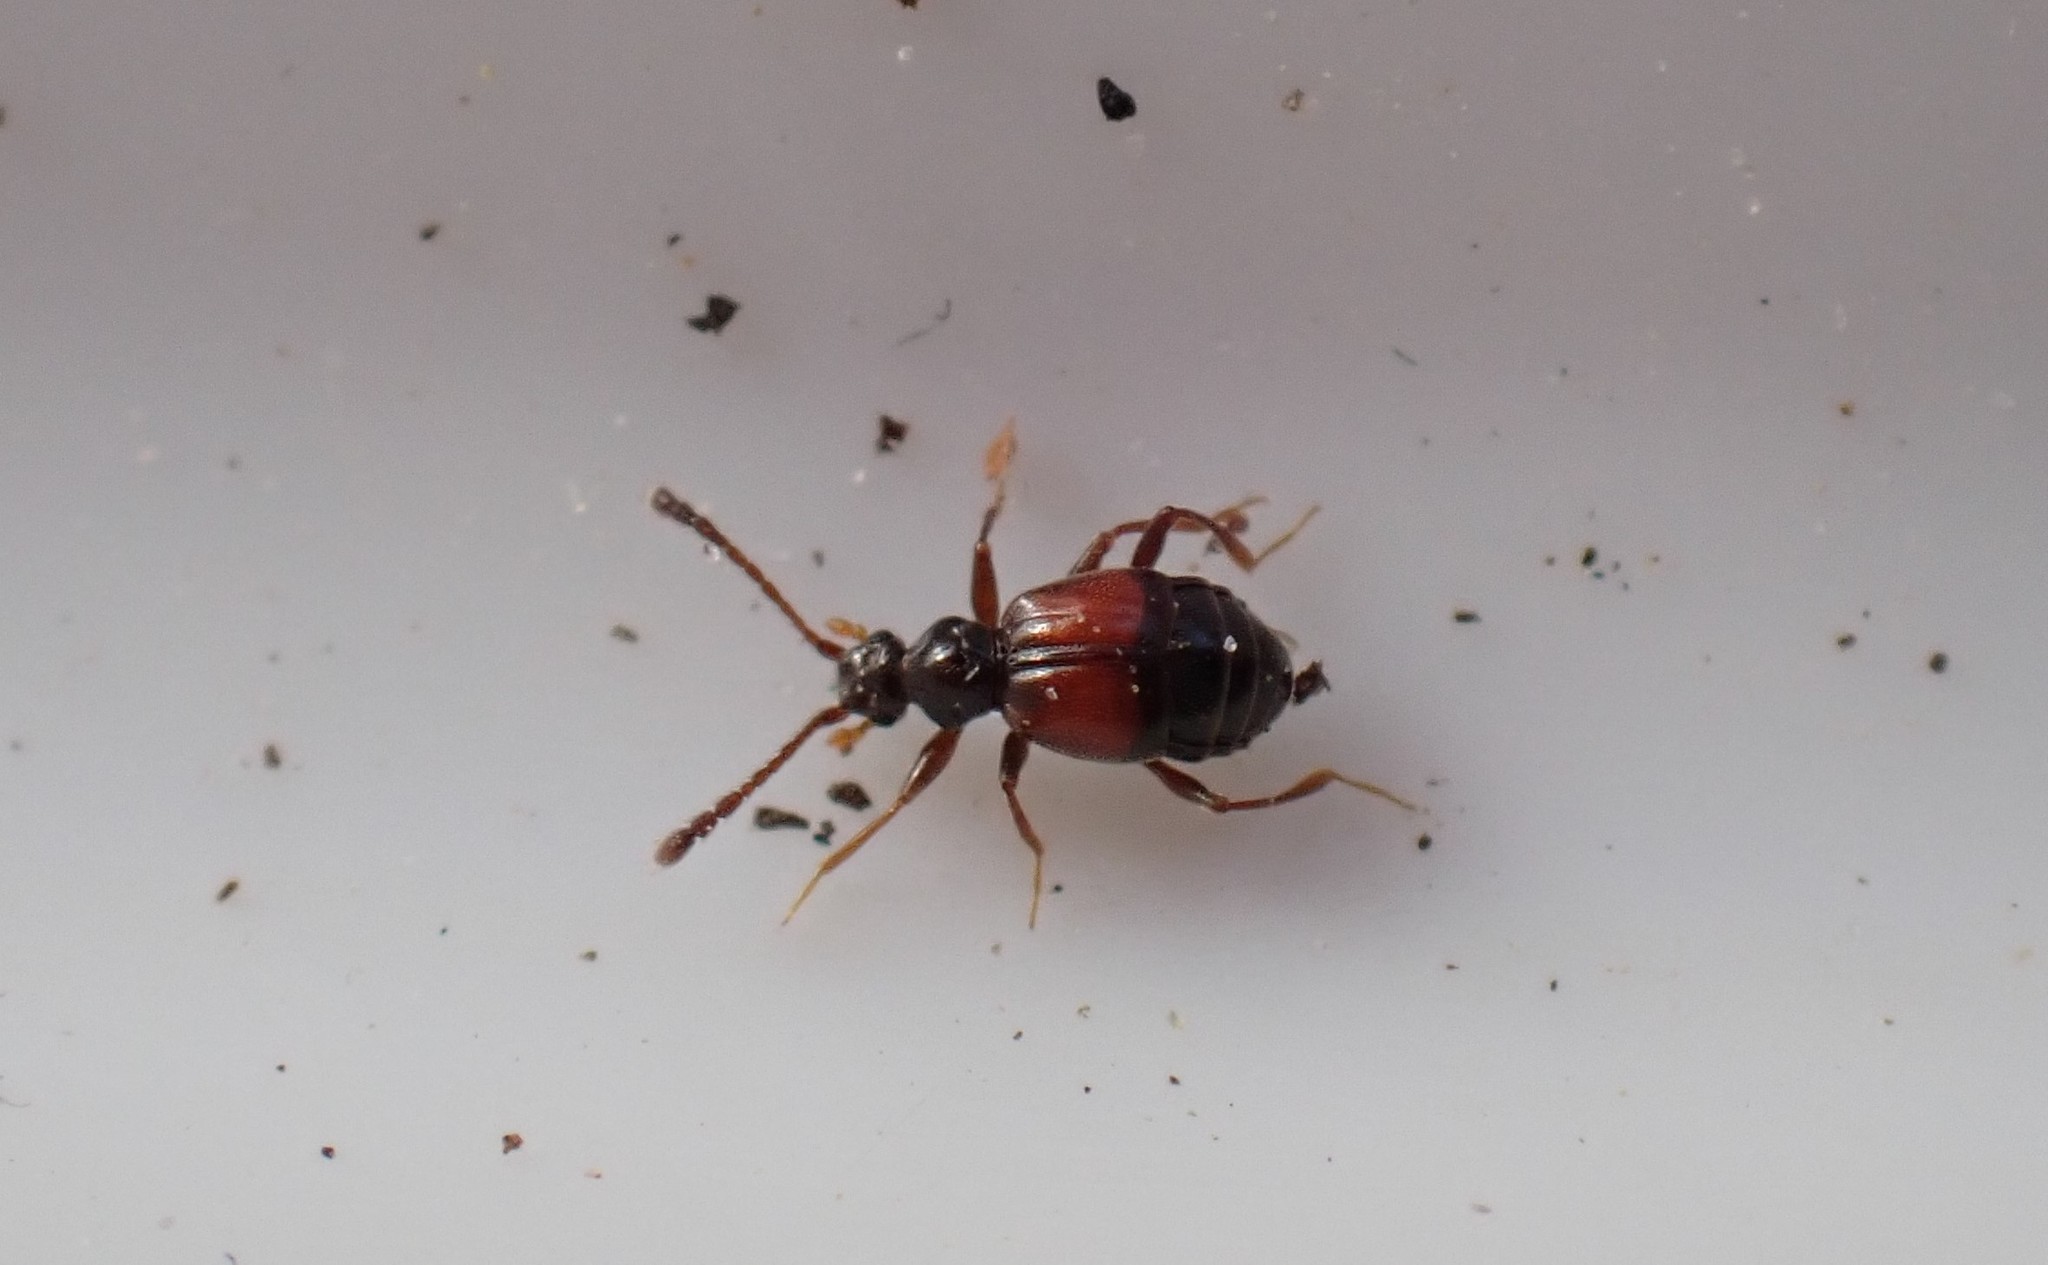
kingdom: Animalia
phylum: Arthropoda
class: Insecta
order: Coleoptera
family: Staphylinidae
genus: Rybaxis
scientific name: Rybaxis longicornis
